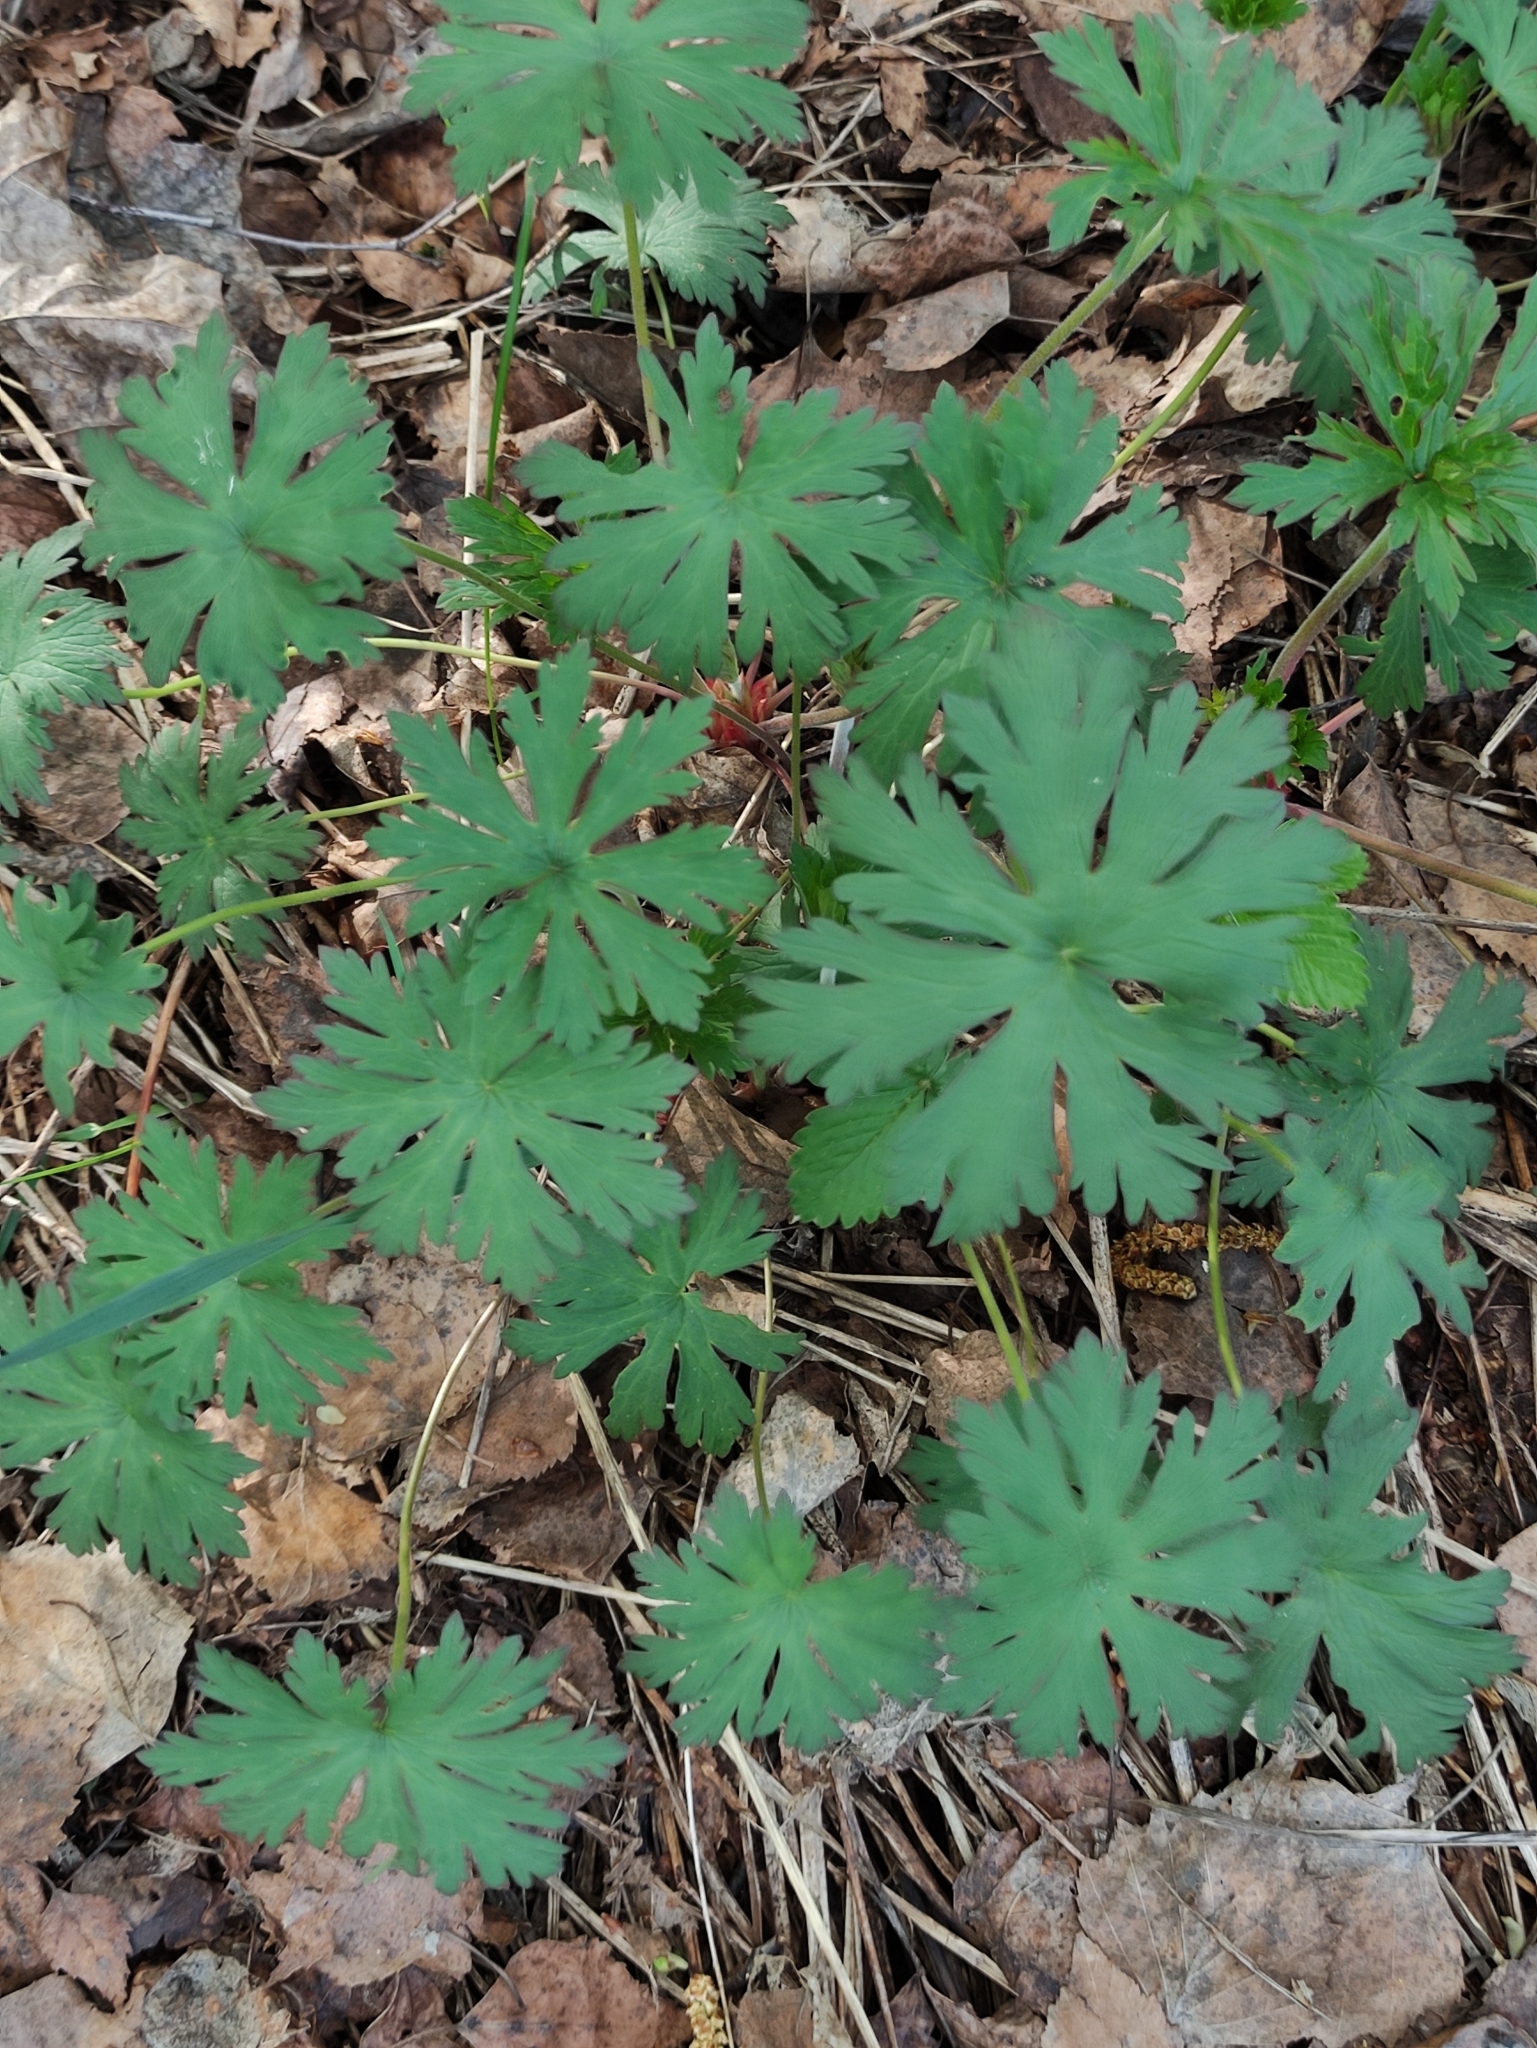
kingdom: Plantae
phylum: Tracheophyta
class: Magnoliopsida
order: Geraniales
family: Geraniaceae
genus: Geranium
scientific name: Geranium pratense
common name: Meadow crane's-bill
